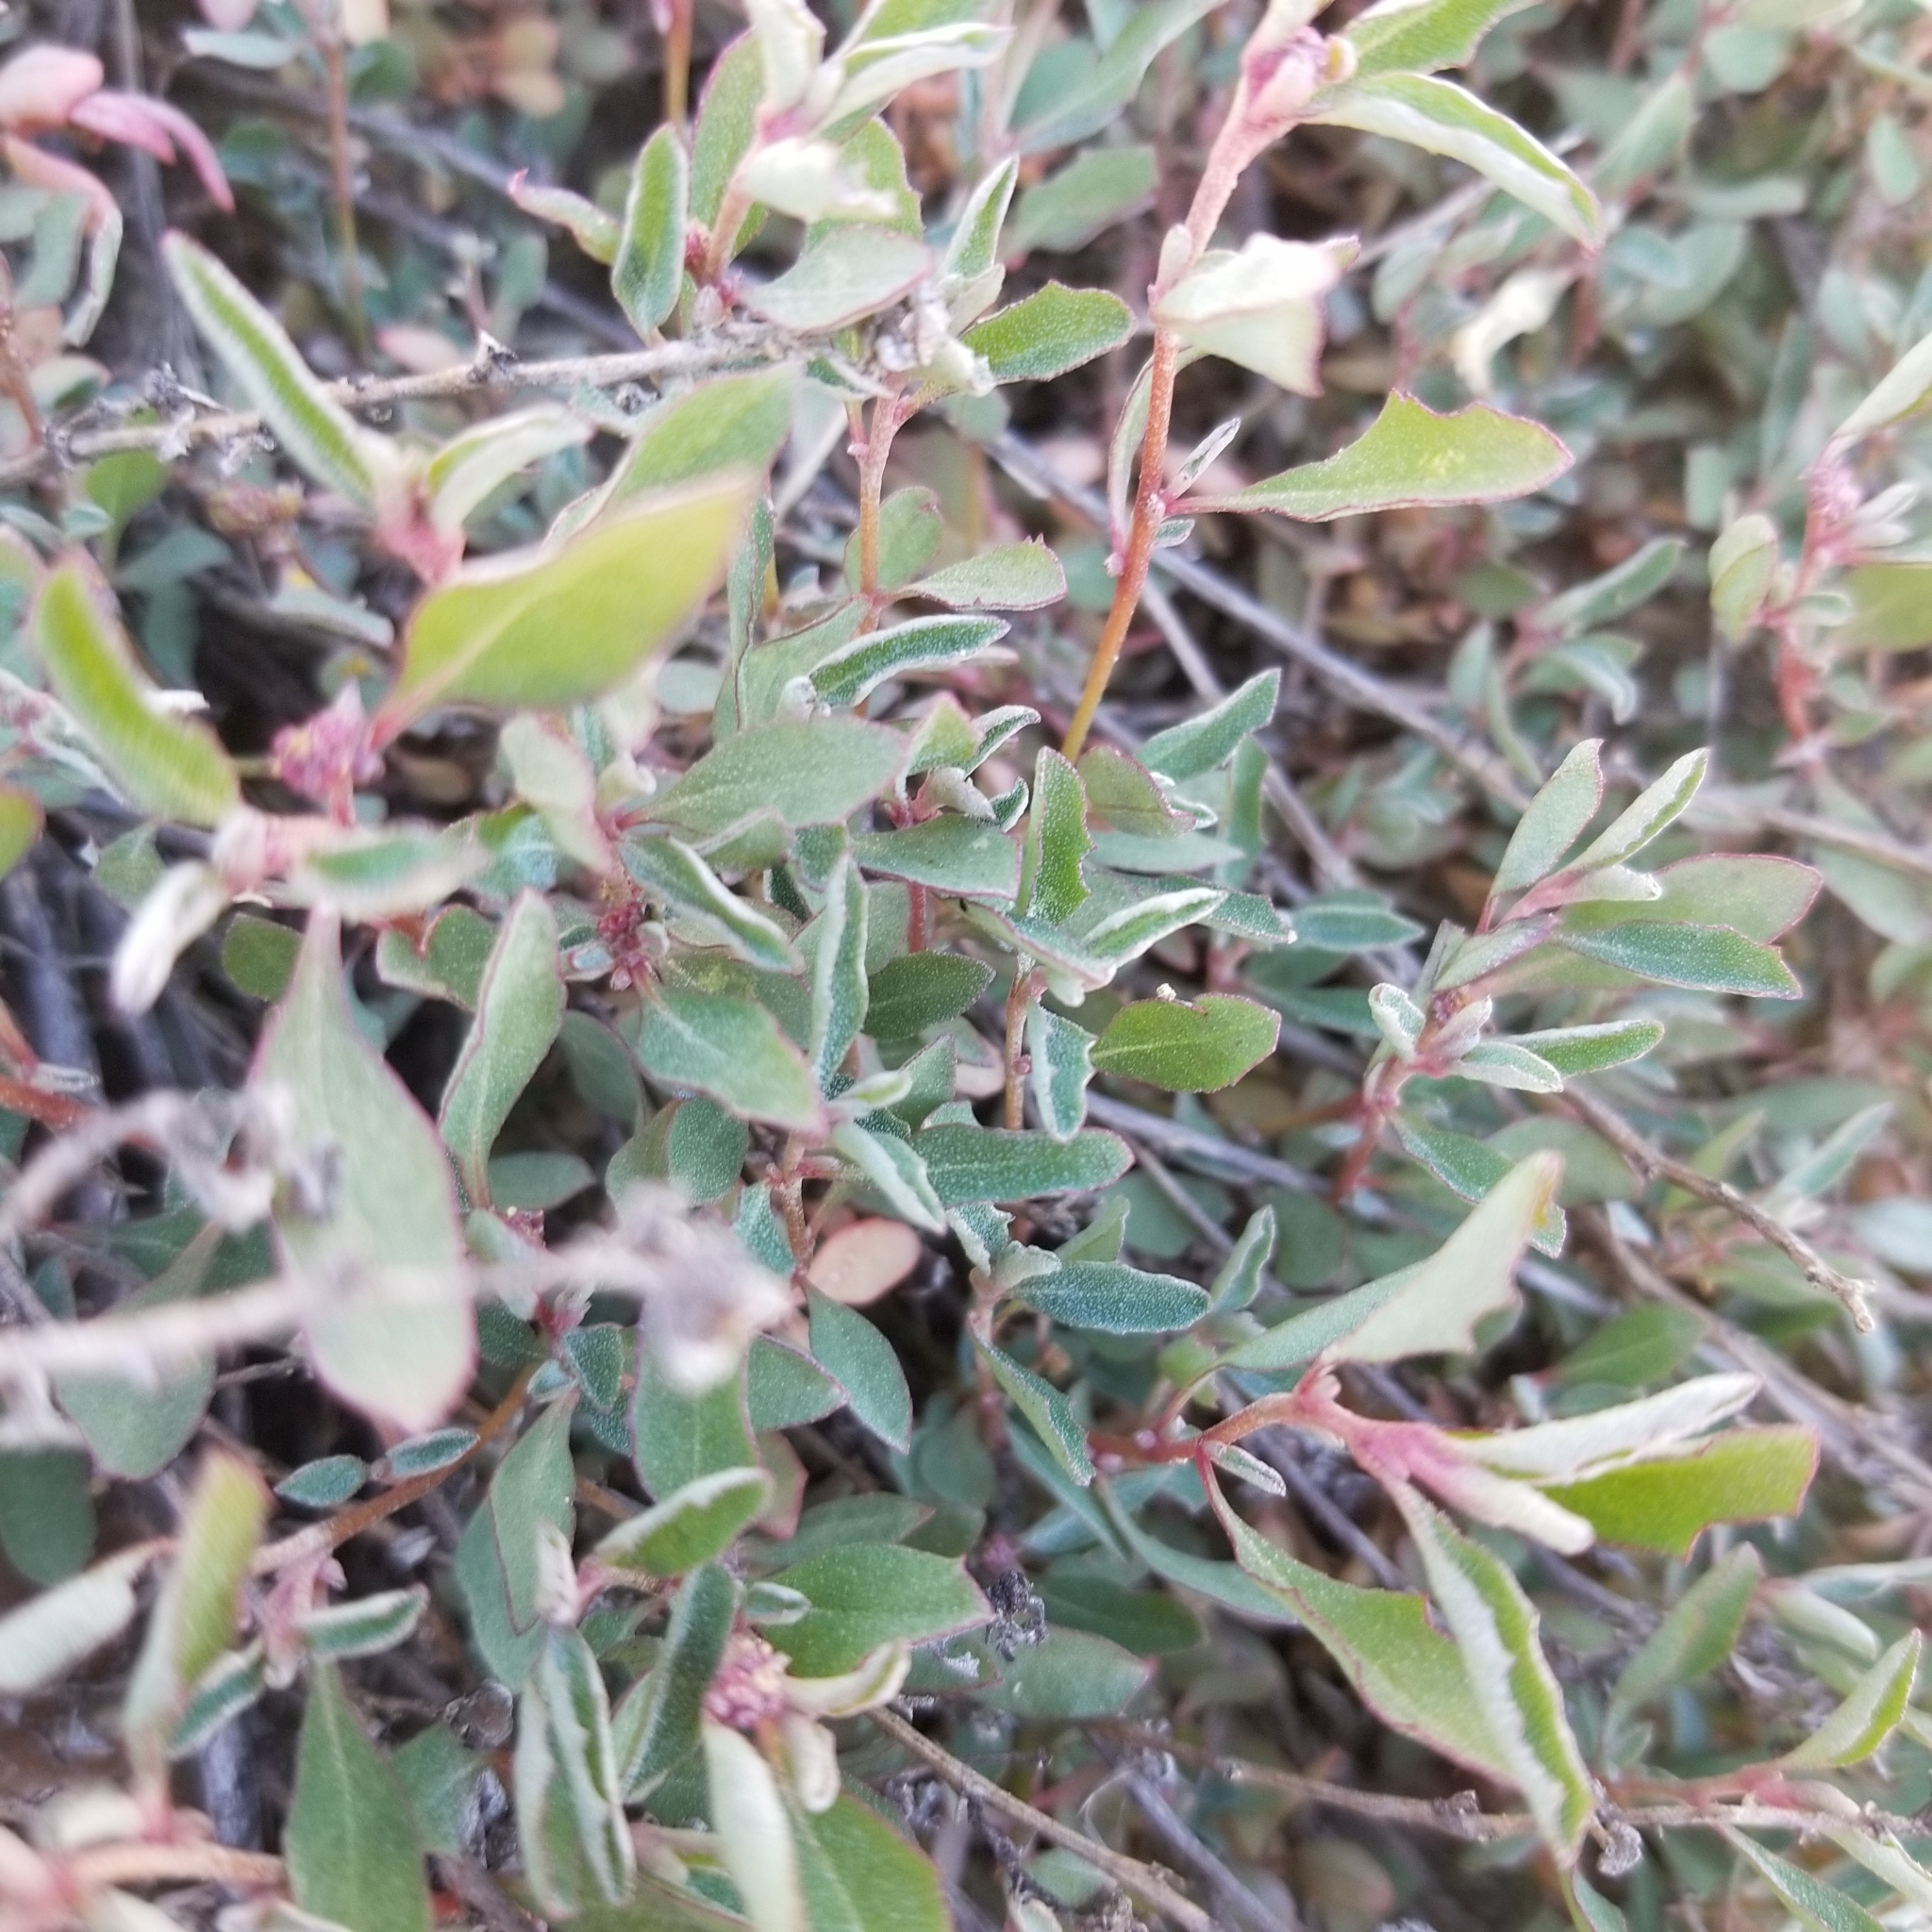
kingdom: Plantae
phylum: Tracheophyta
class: Magnoliopsida
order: Caryophyllales
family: Amaranthaceae
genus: Atriplex
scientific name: Atriplex semibaccata
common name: Australian saltbush
